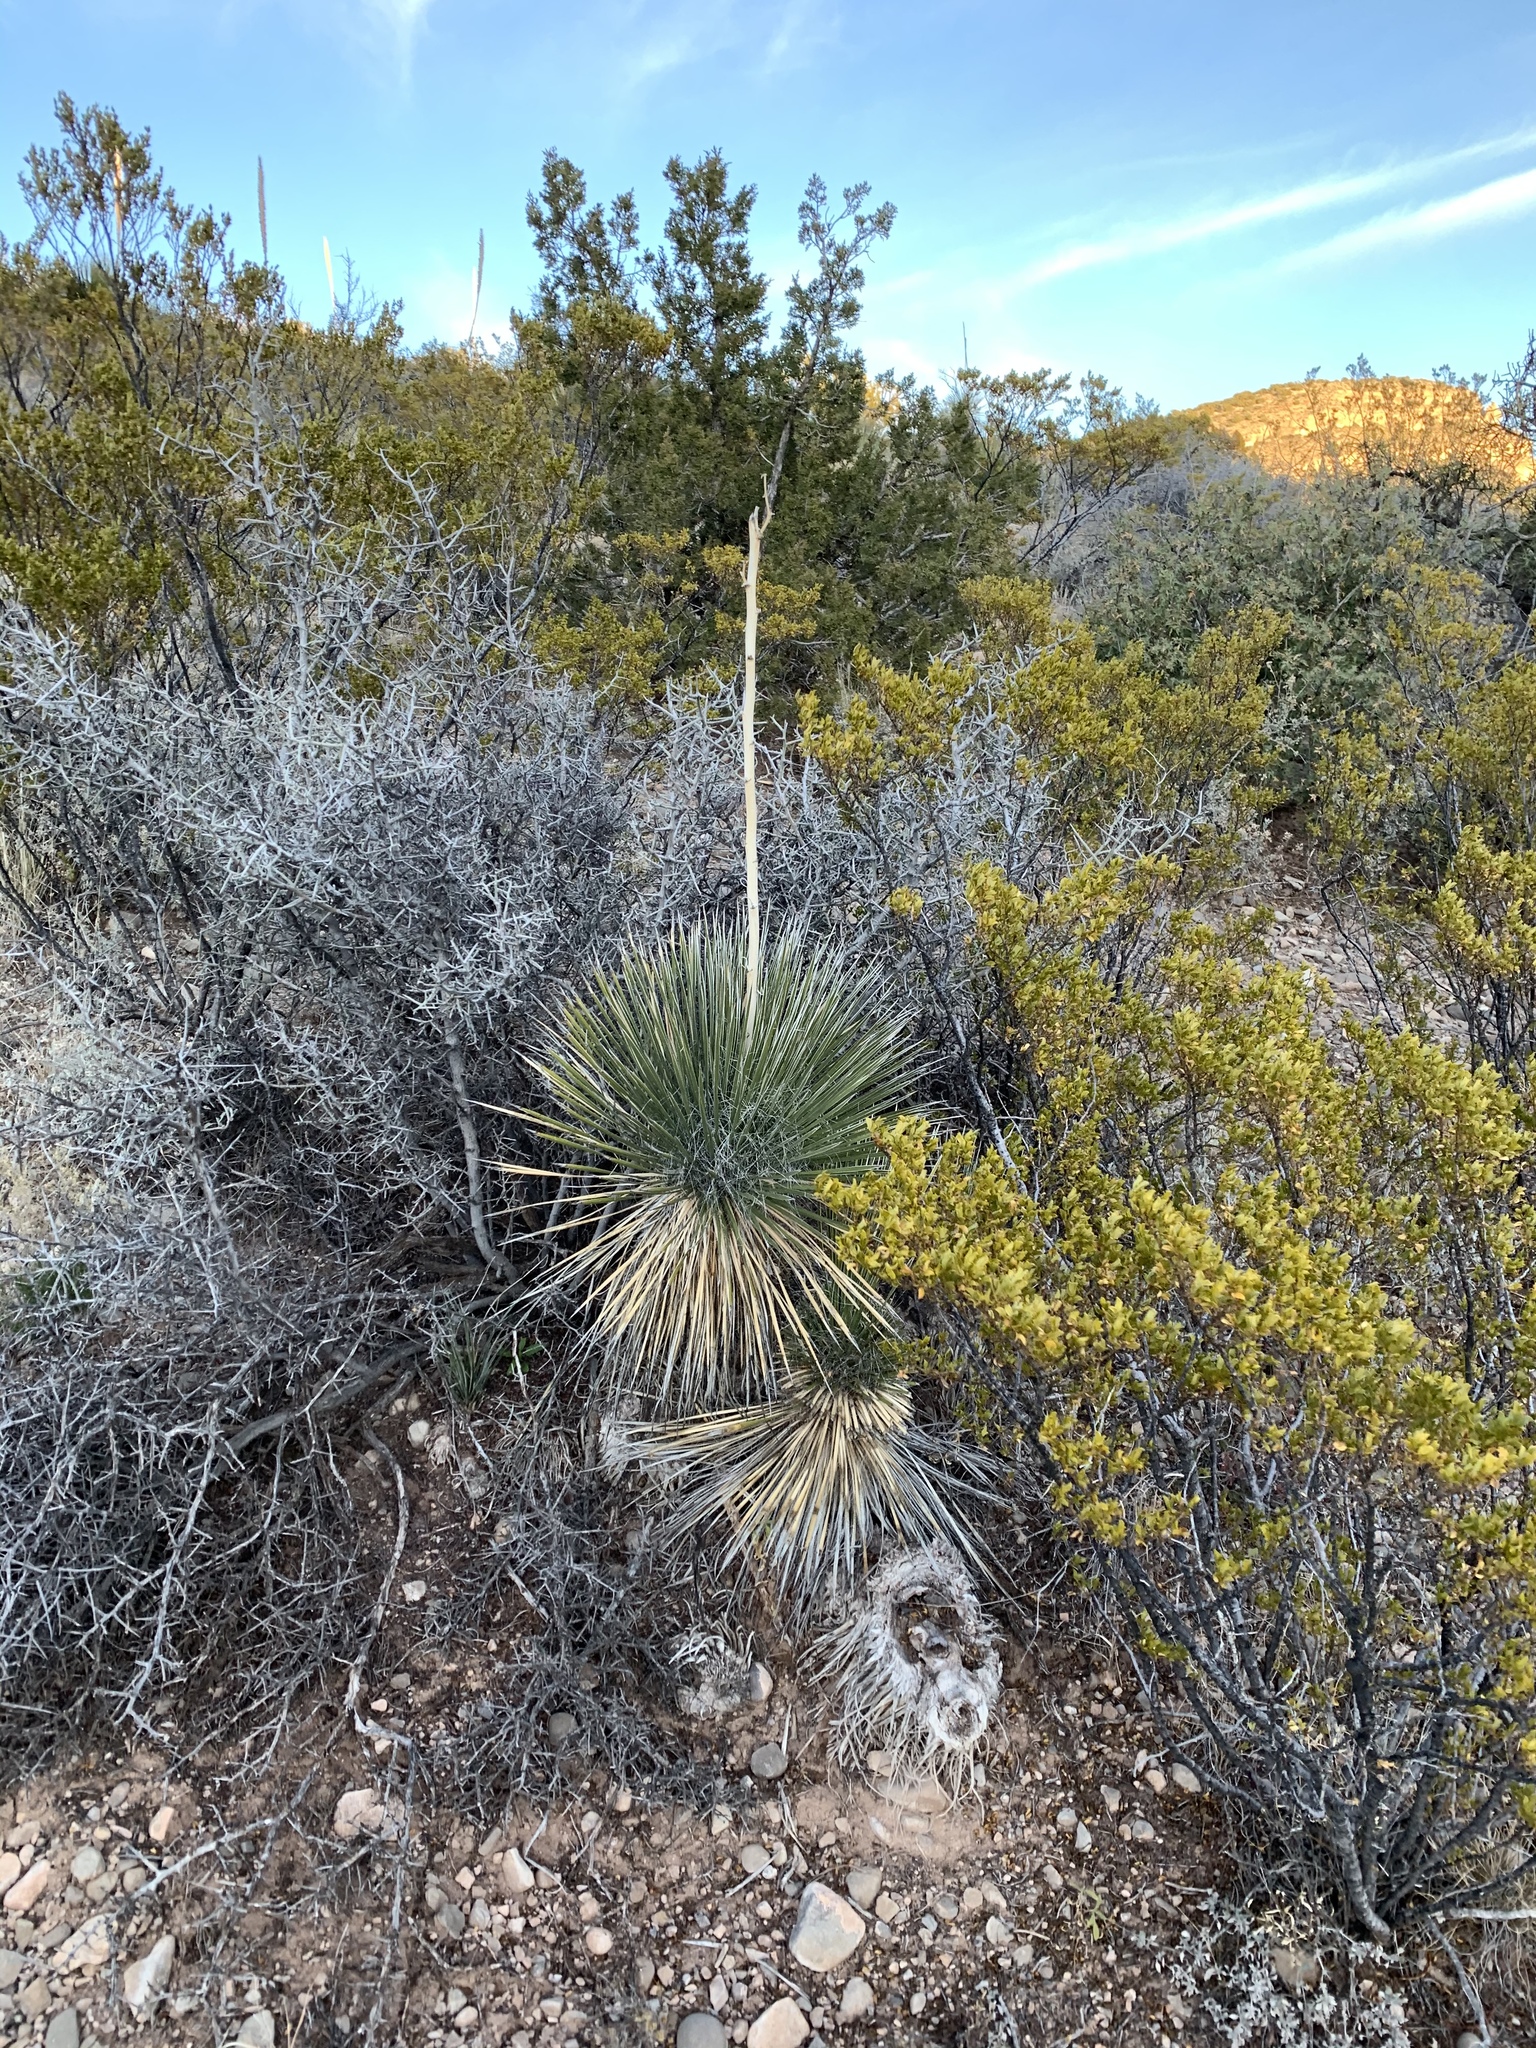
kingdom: Plantae
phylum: Tracheophyta
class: Liliopsida
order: Asparagales
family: Asparagaceae
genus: Yucca
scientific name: Yucca elata
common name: Palmella
